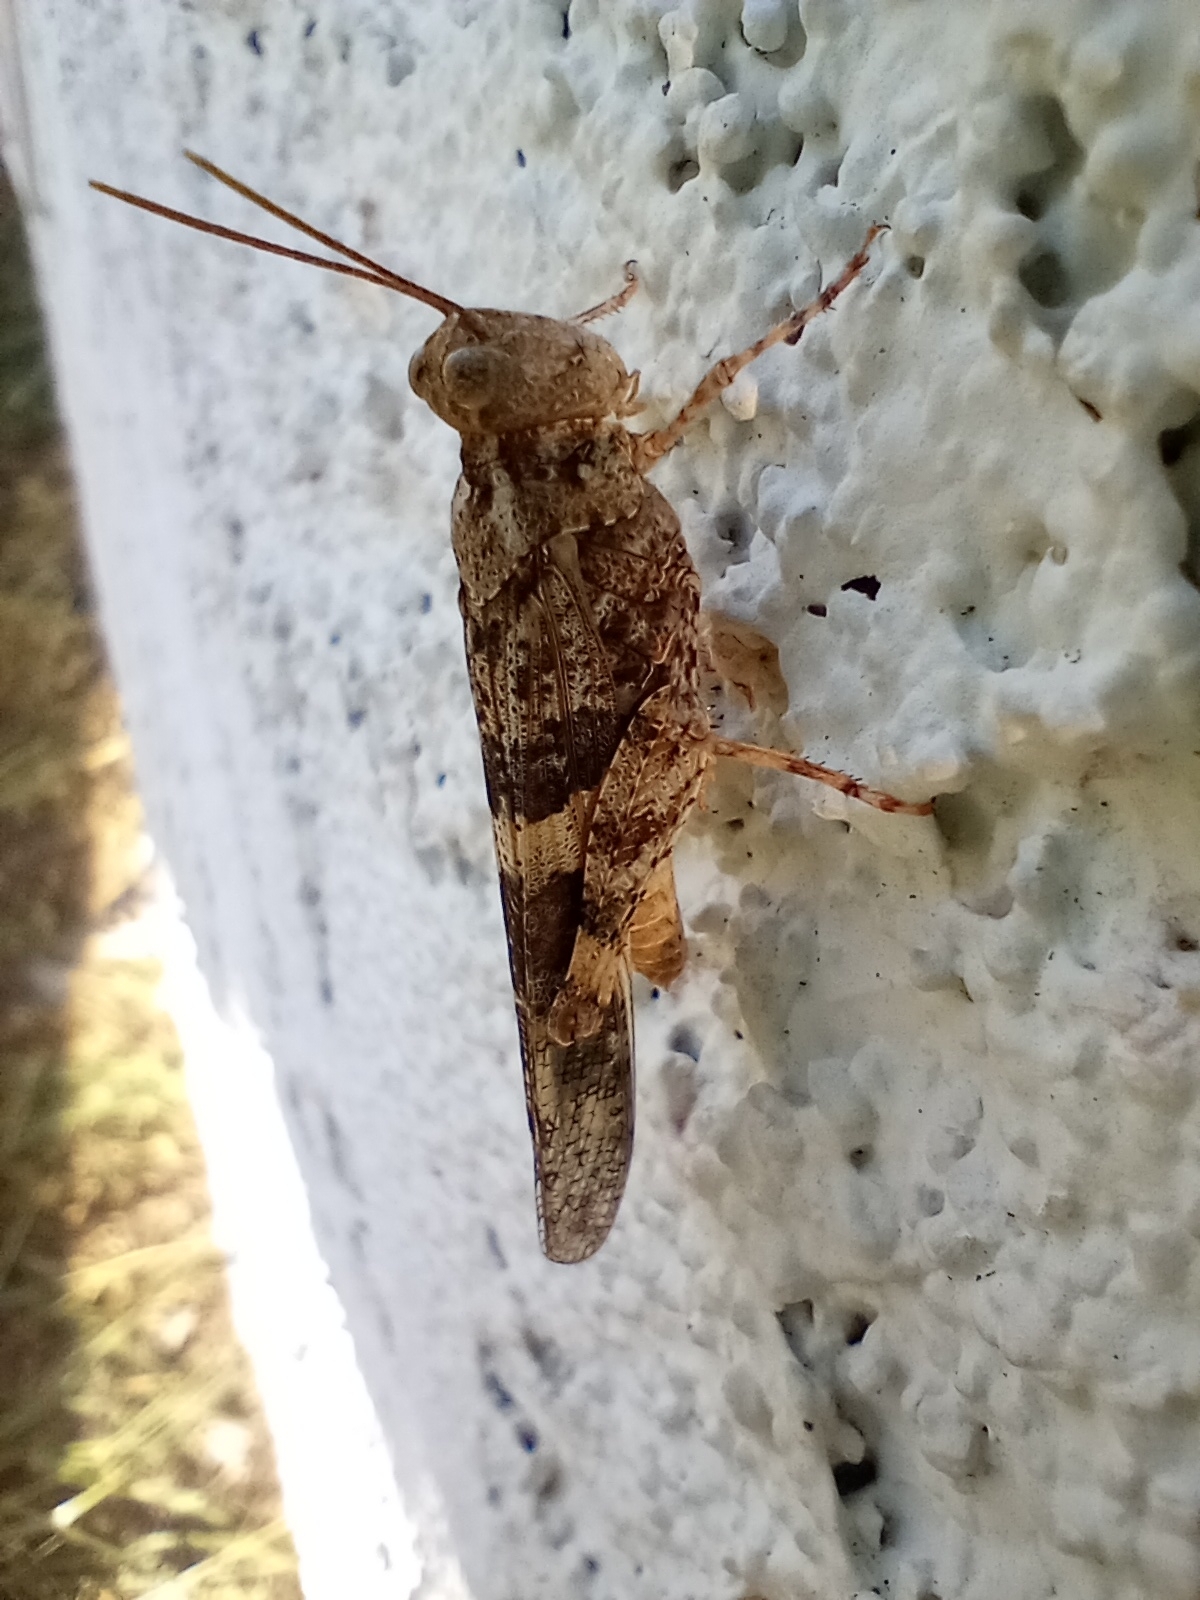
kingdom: Animalia
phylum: Arthropoda
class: Insecta
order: Orthoptera
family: Acrididae
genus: Trimerotropis
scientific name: Trimerotropis pallidipennis
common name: Pallid-winged grasshopper
